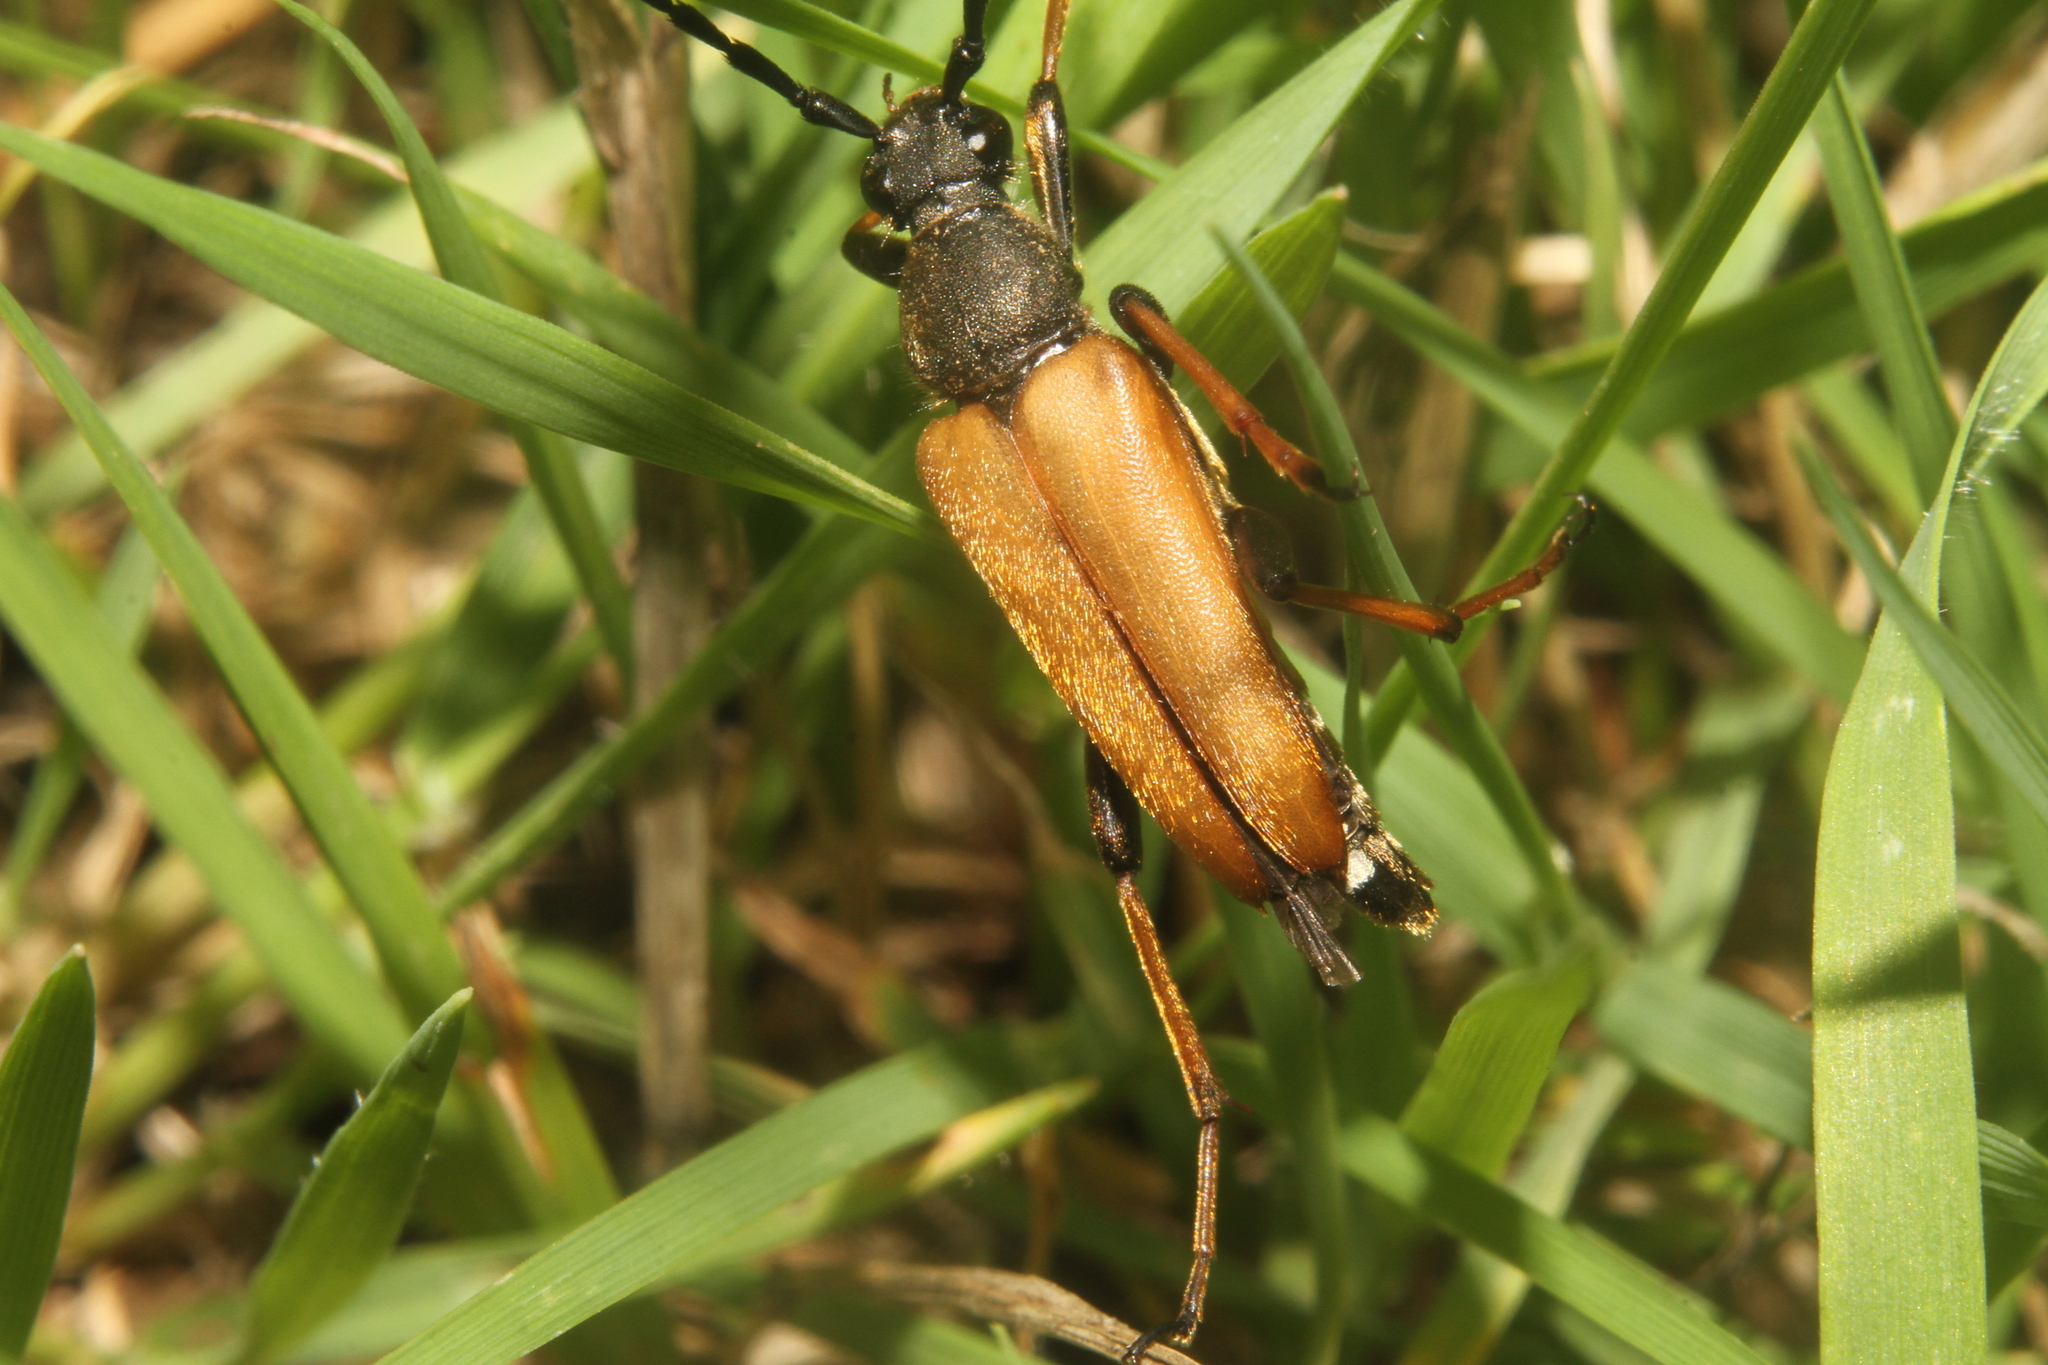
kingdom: Animalia
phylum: Arthropoda
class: Insecta
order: Coleoptera
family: Cerambycidae
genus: Stictoleptura
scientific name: Stictoleptura rubra
